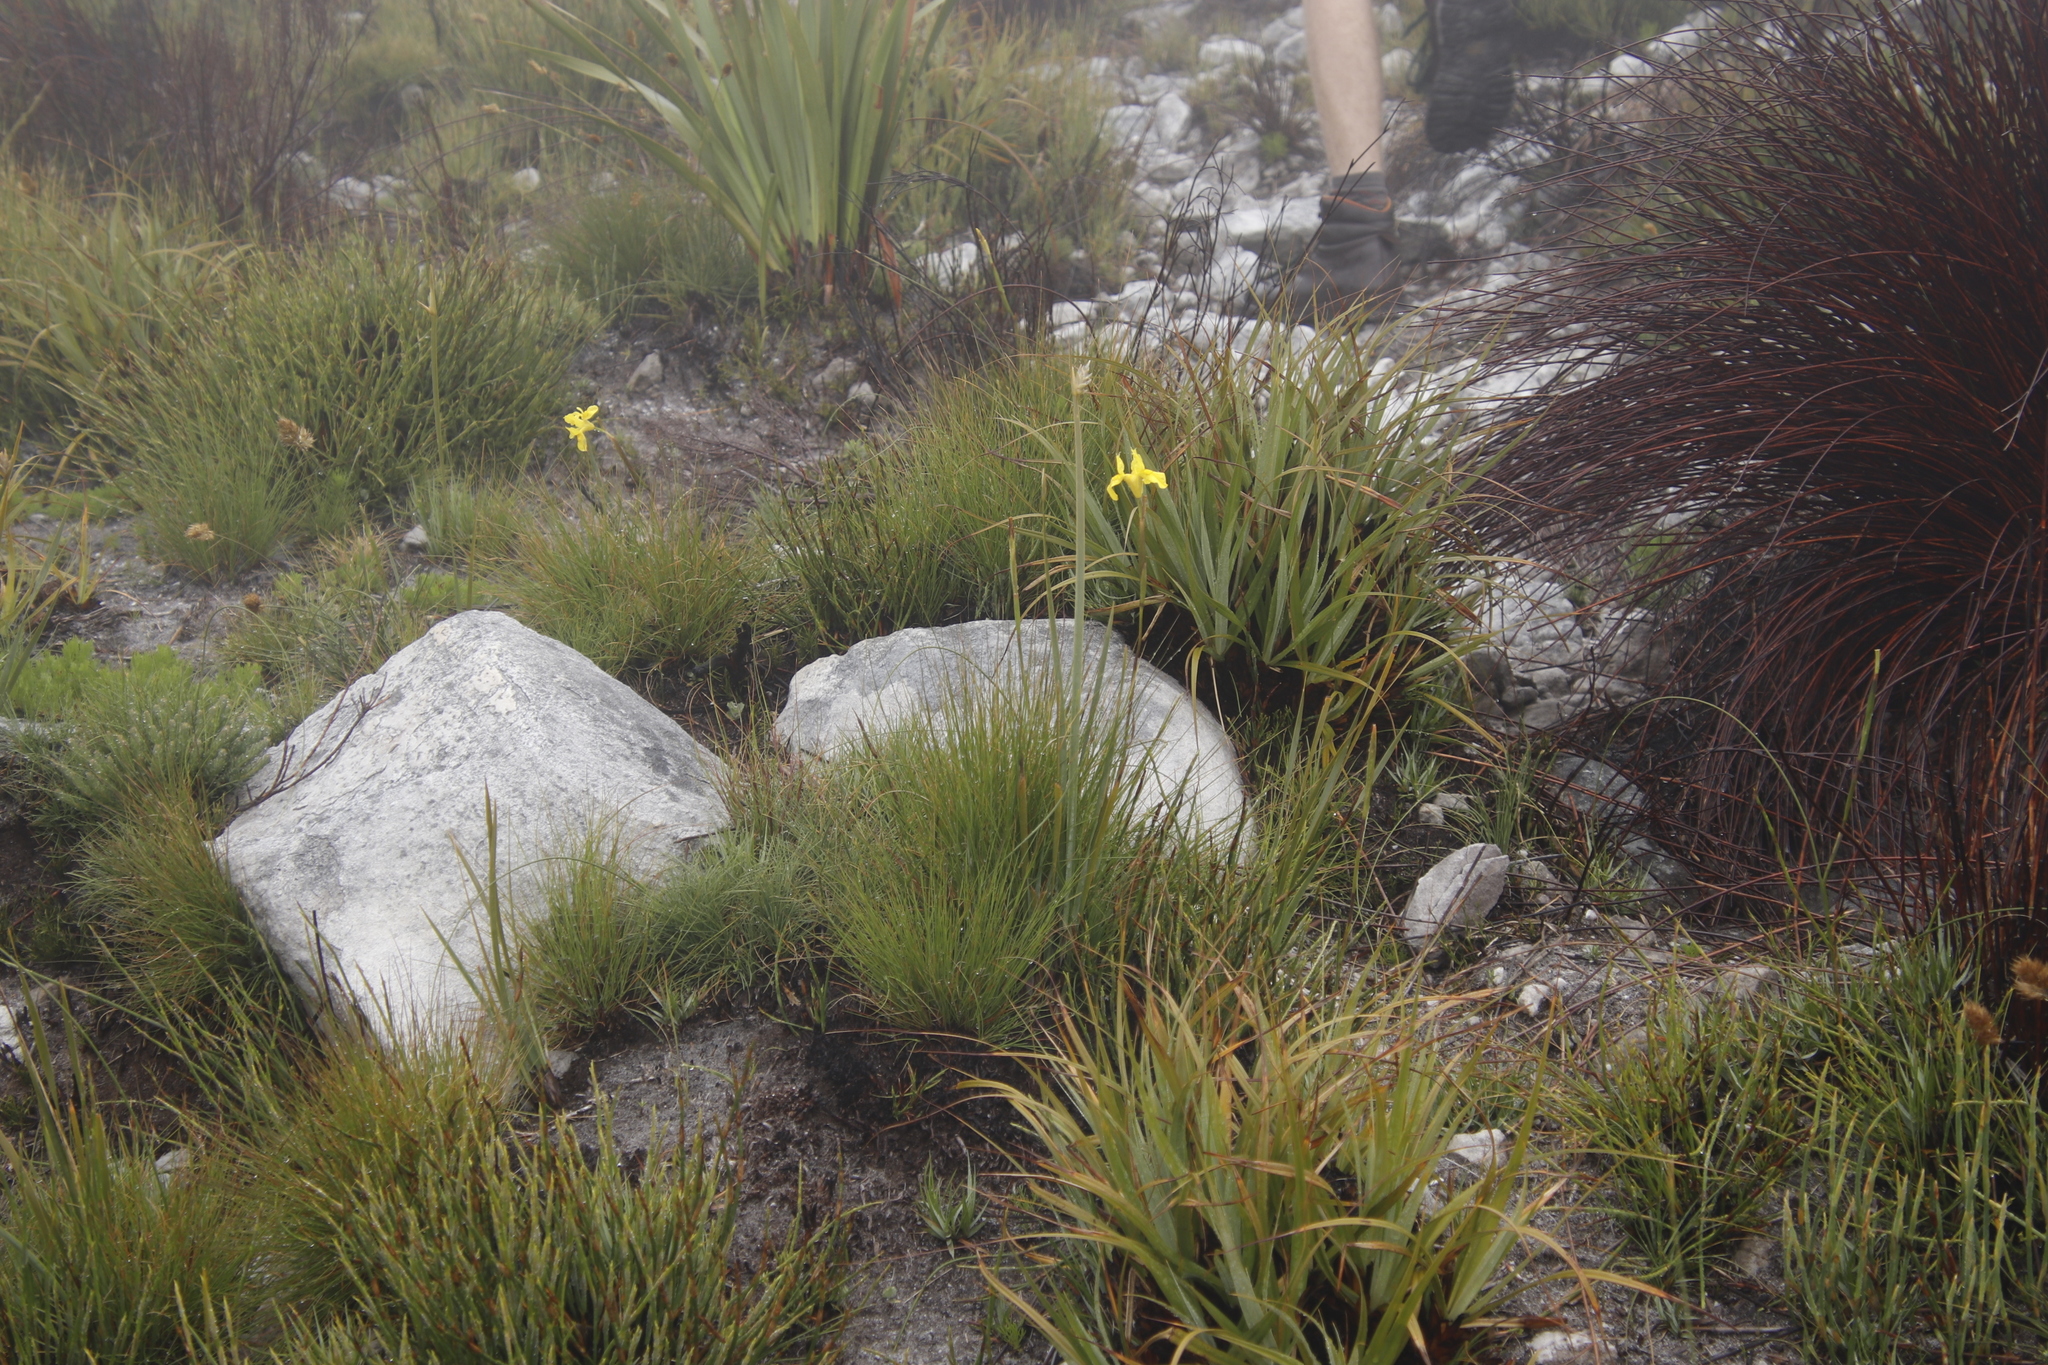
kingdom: Plantae
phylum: Tracheophyta
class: Liliopsida
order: Asparagales
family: Iridaceae
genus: Moraea
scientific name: Moraea neglecta
